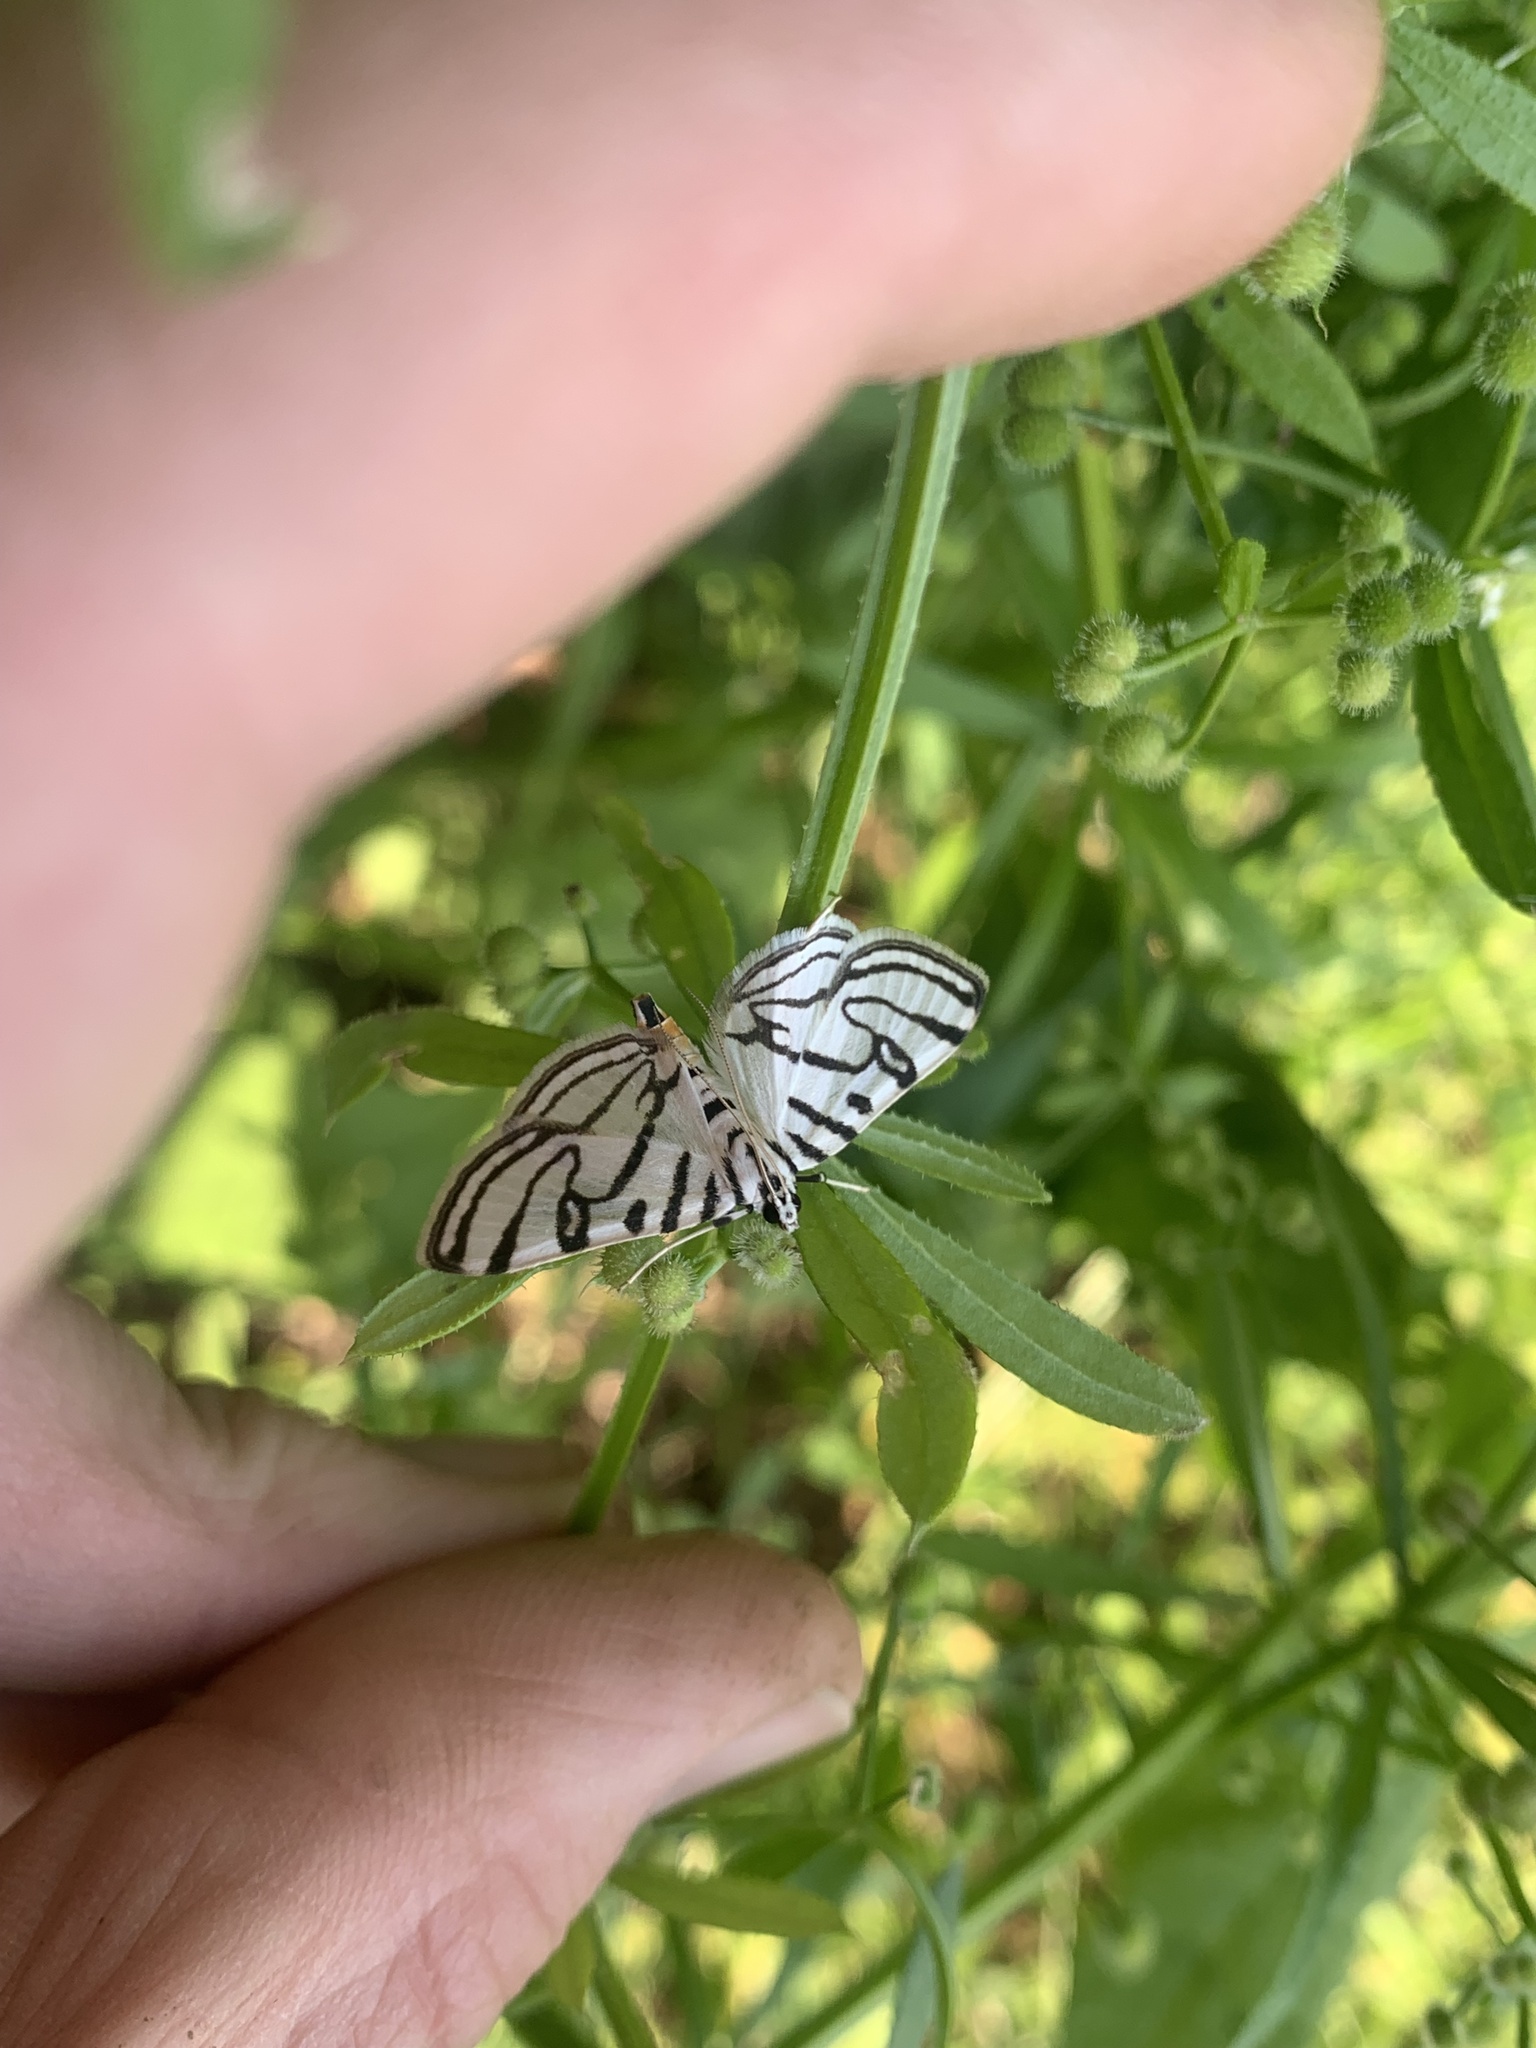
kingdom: Animalia
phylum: Arthropoda
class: Insecta
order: Lepidoptera
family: Crambidae
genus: Conchylodes
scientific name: Conchylodes ovulalis
